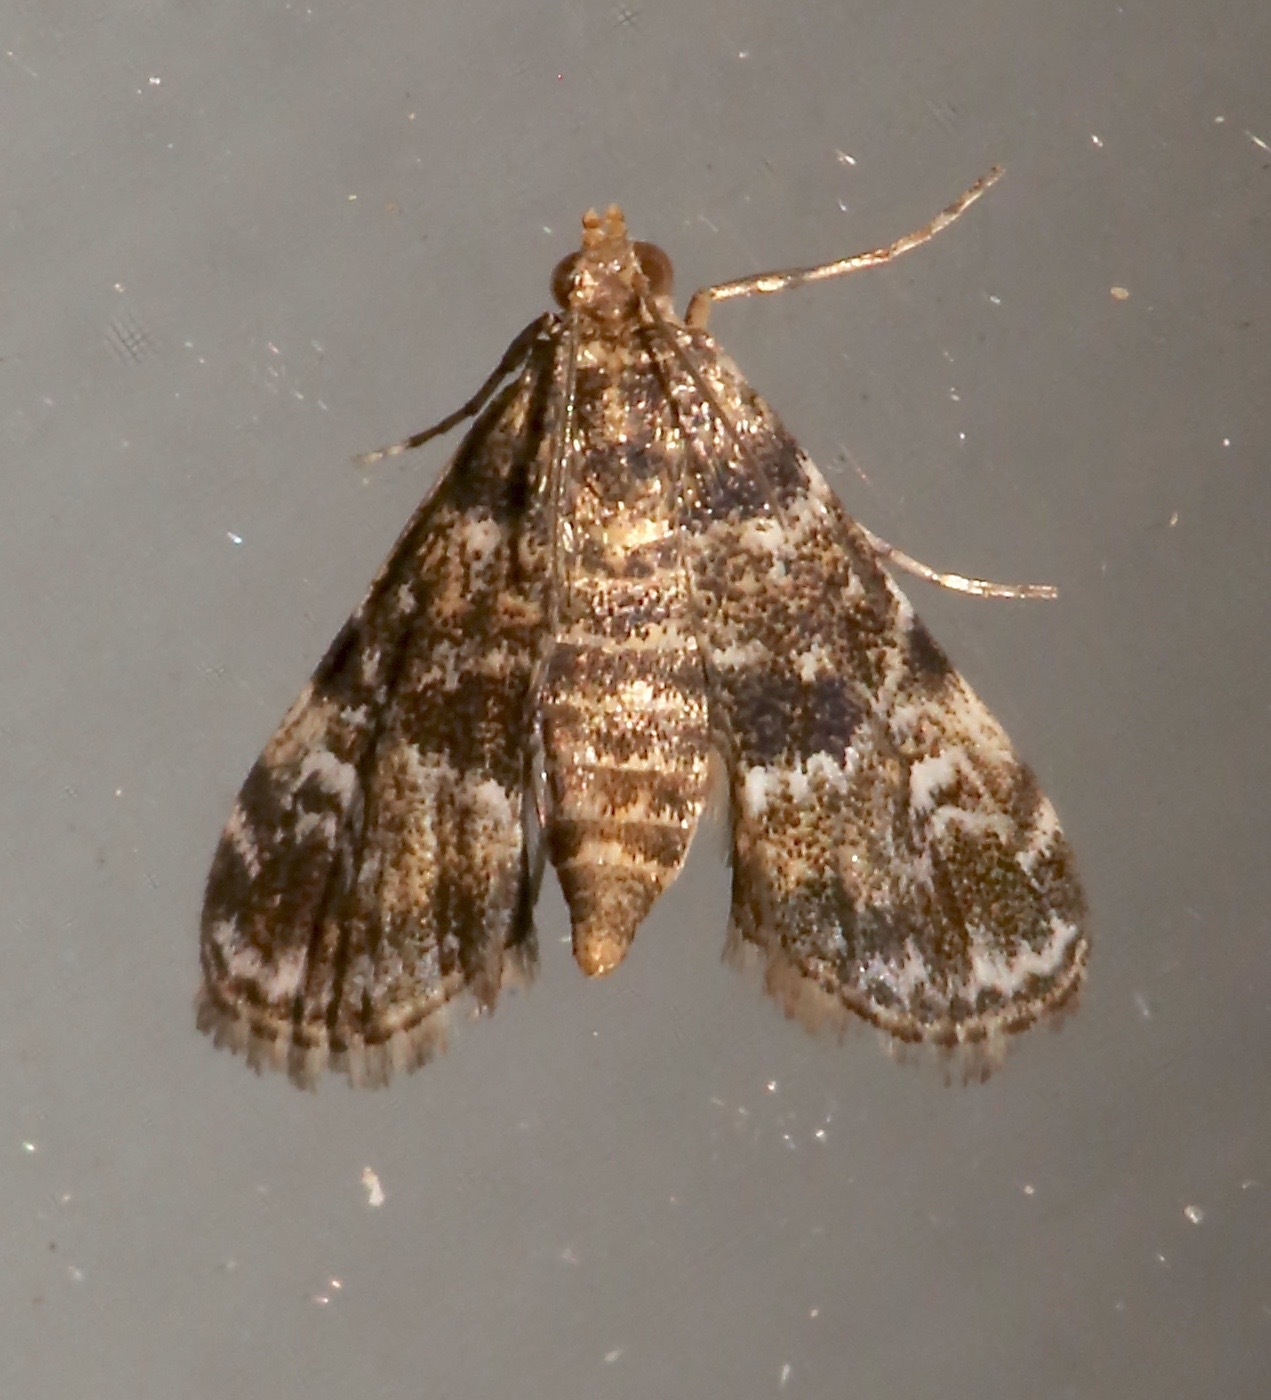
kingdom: Animalia
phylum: Arthropoda
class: Insecta
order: Lepidoptera
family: Crambidae
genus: Elophila
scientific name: Elophila obliteralis
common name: Waterlily leafcutter moth
